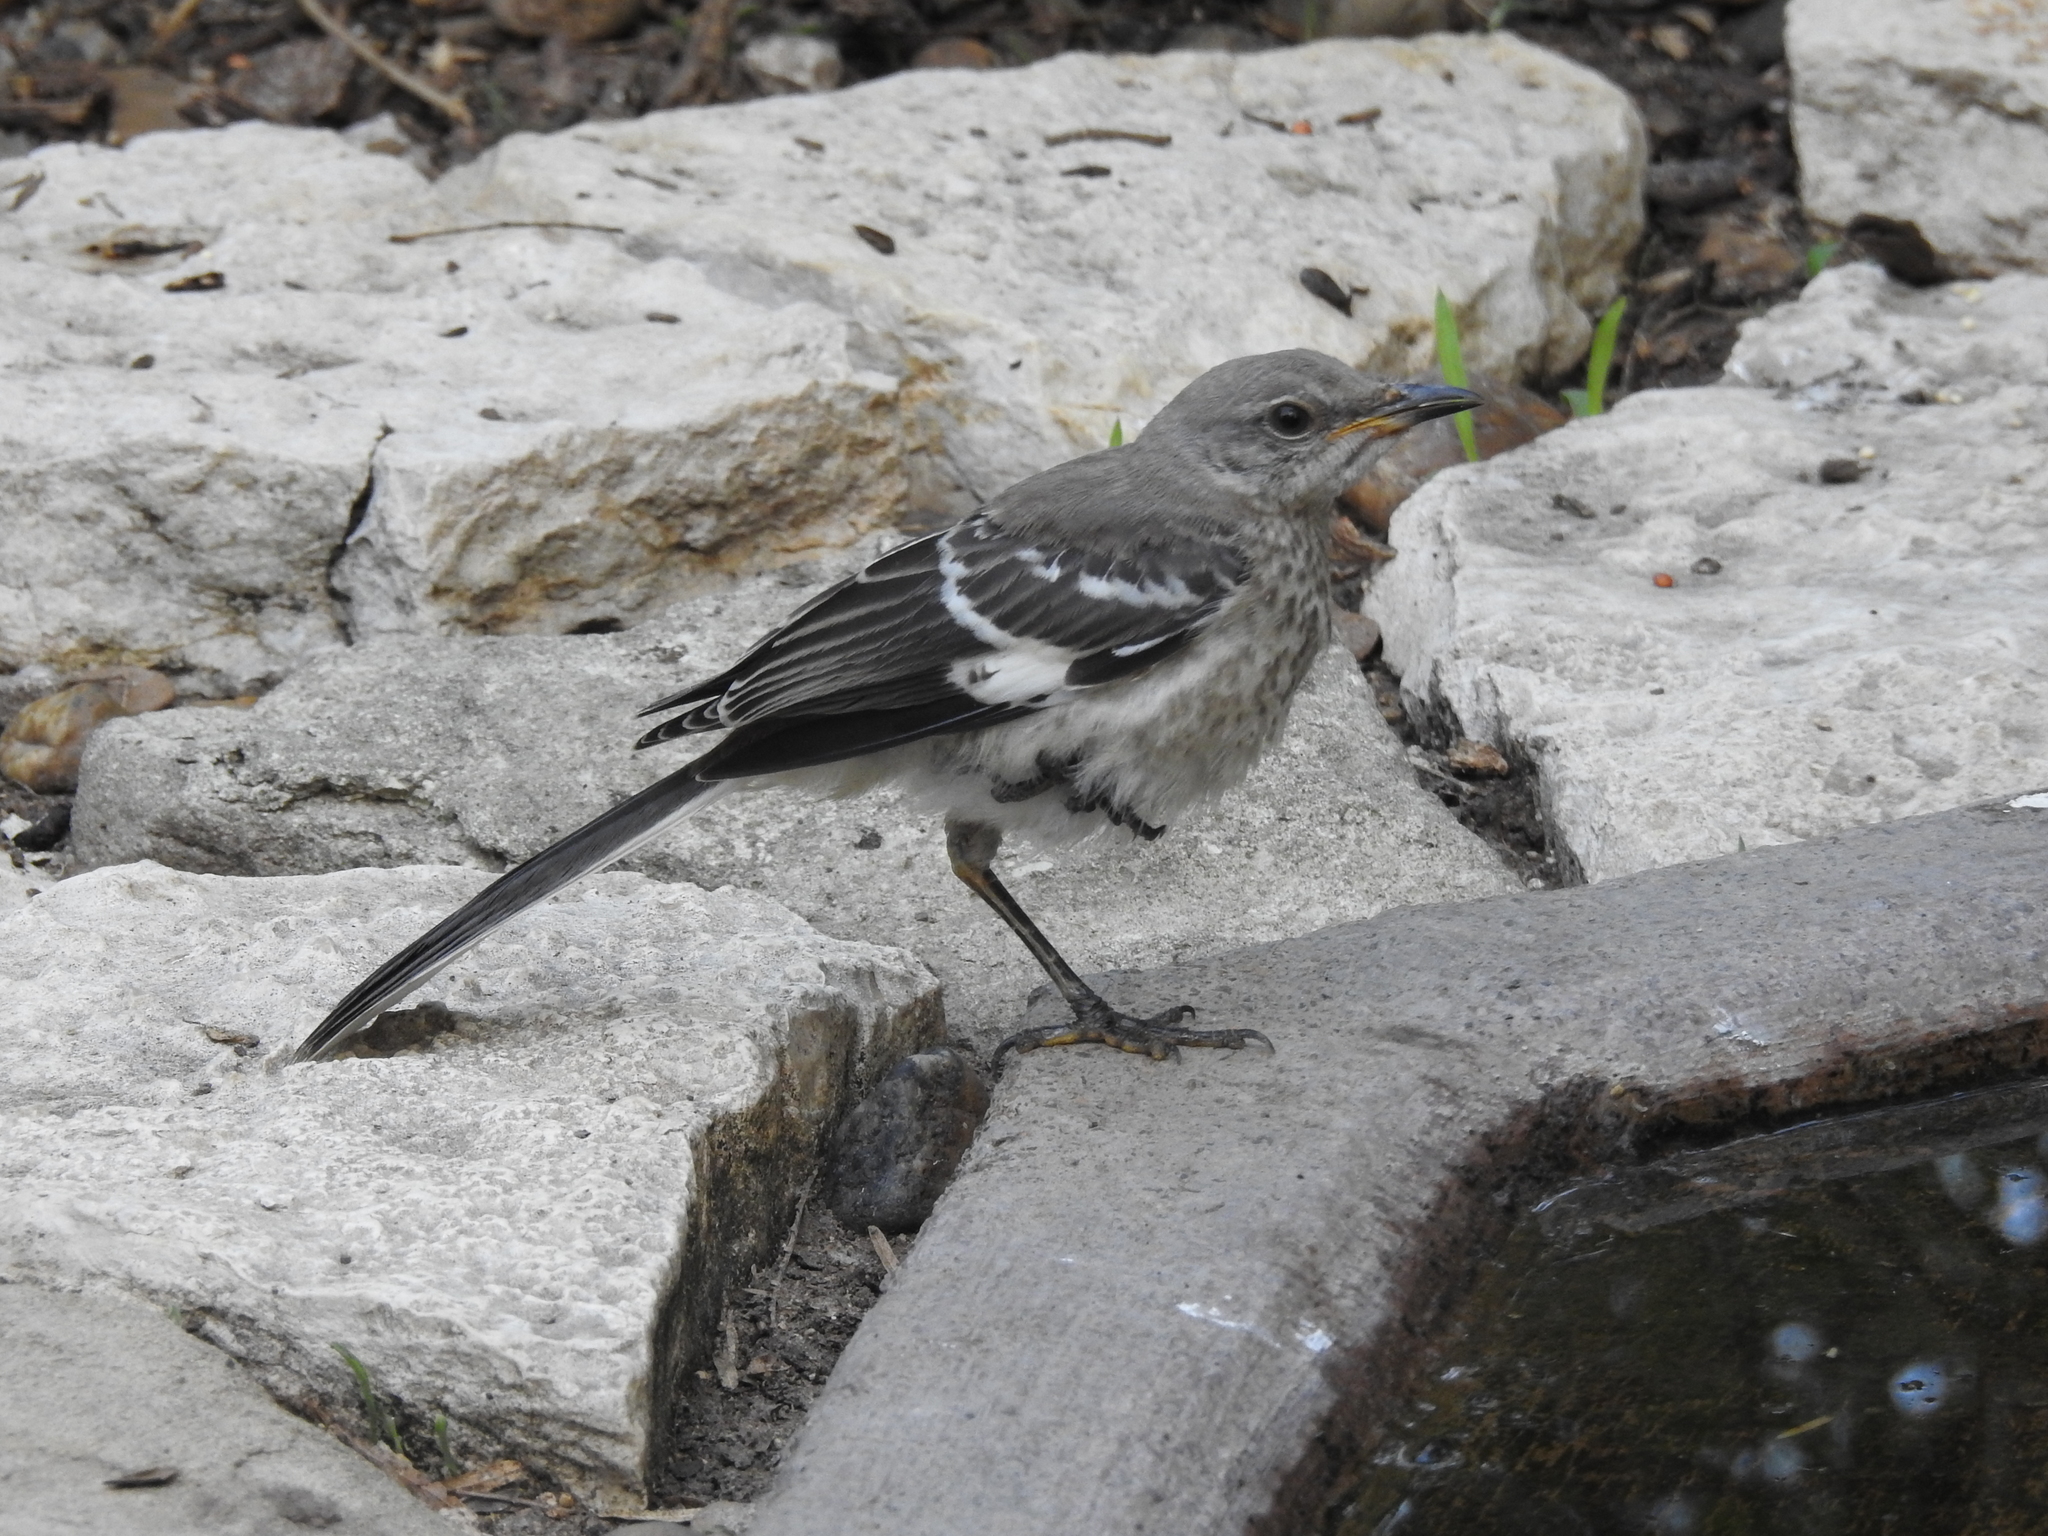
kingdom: Animalia
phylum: Chordata
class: Aves
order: Passeriformes
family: Mimidae
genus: Mimus
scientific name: Mimus polyglottos
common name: Northern mockingbird
